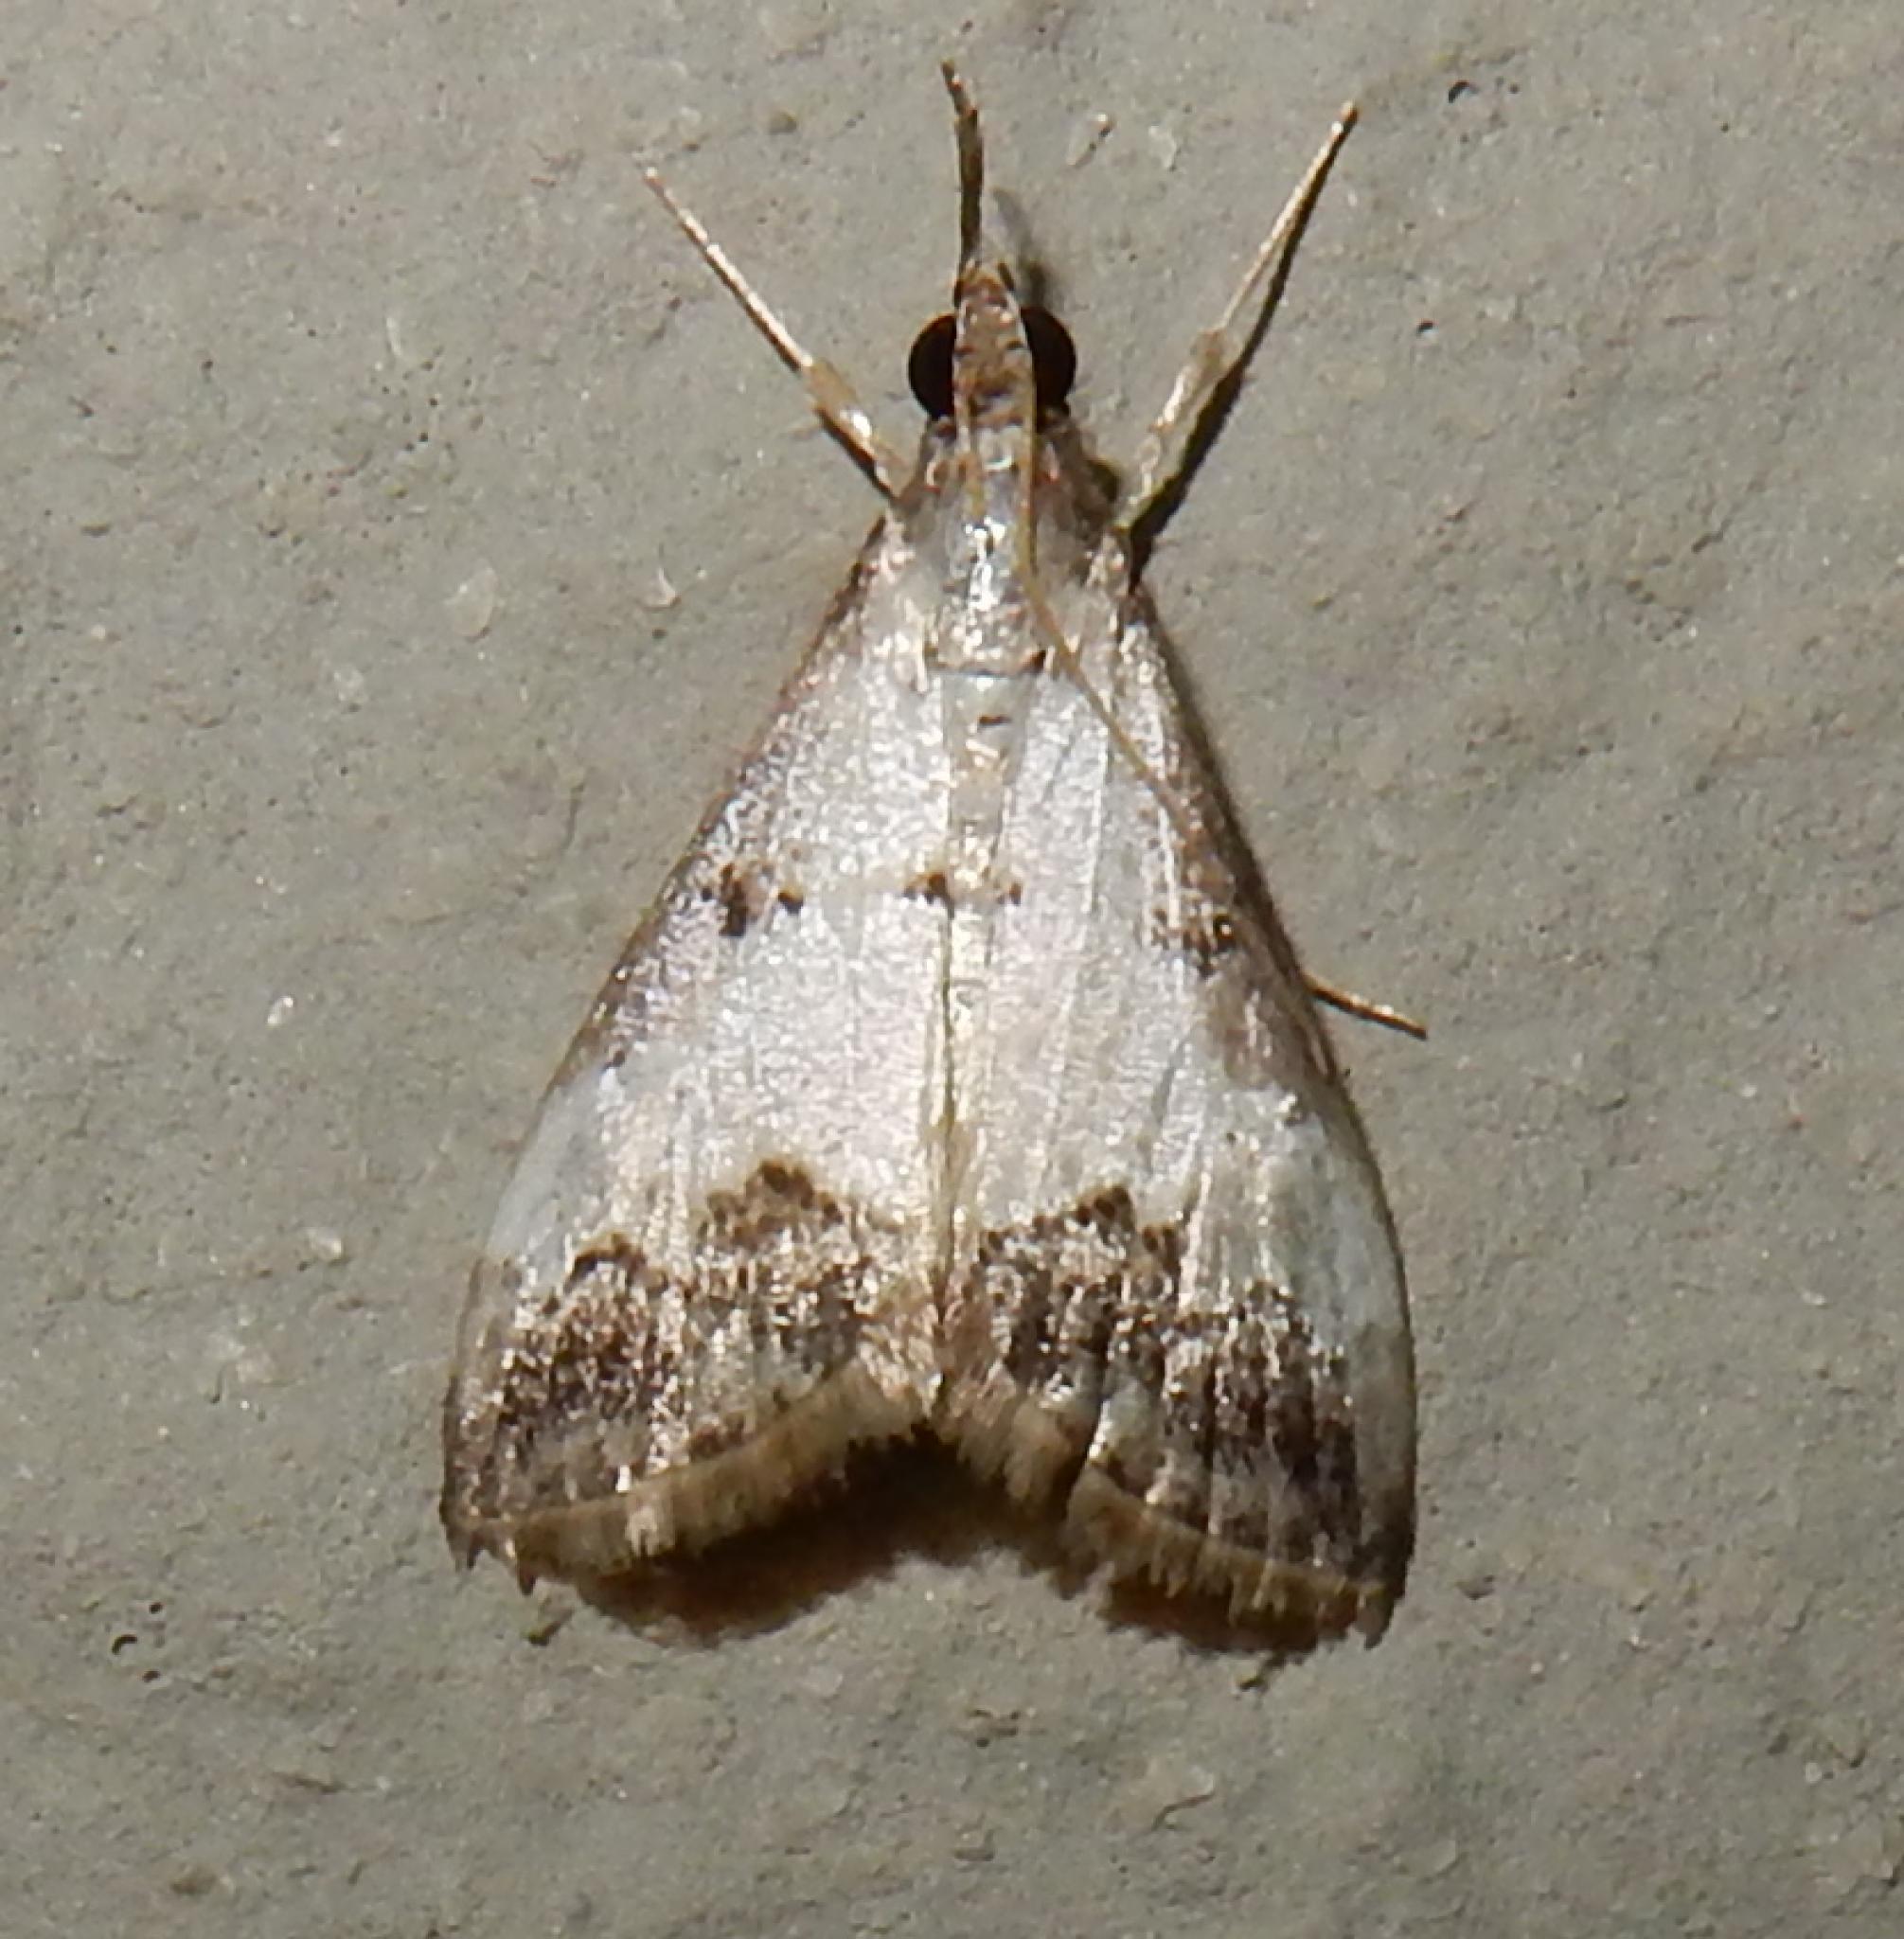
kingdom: Animalia
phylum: Arthropoda
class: Insecta
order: Lepidoptera
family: Crambidae
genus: Autocharis
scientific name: Autocharis sinualis
